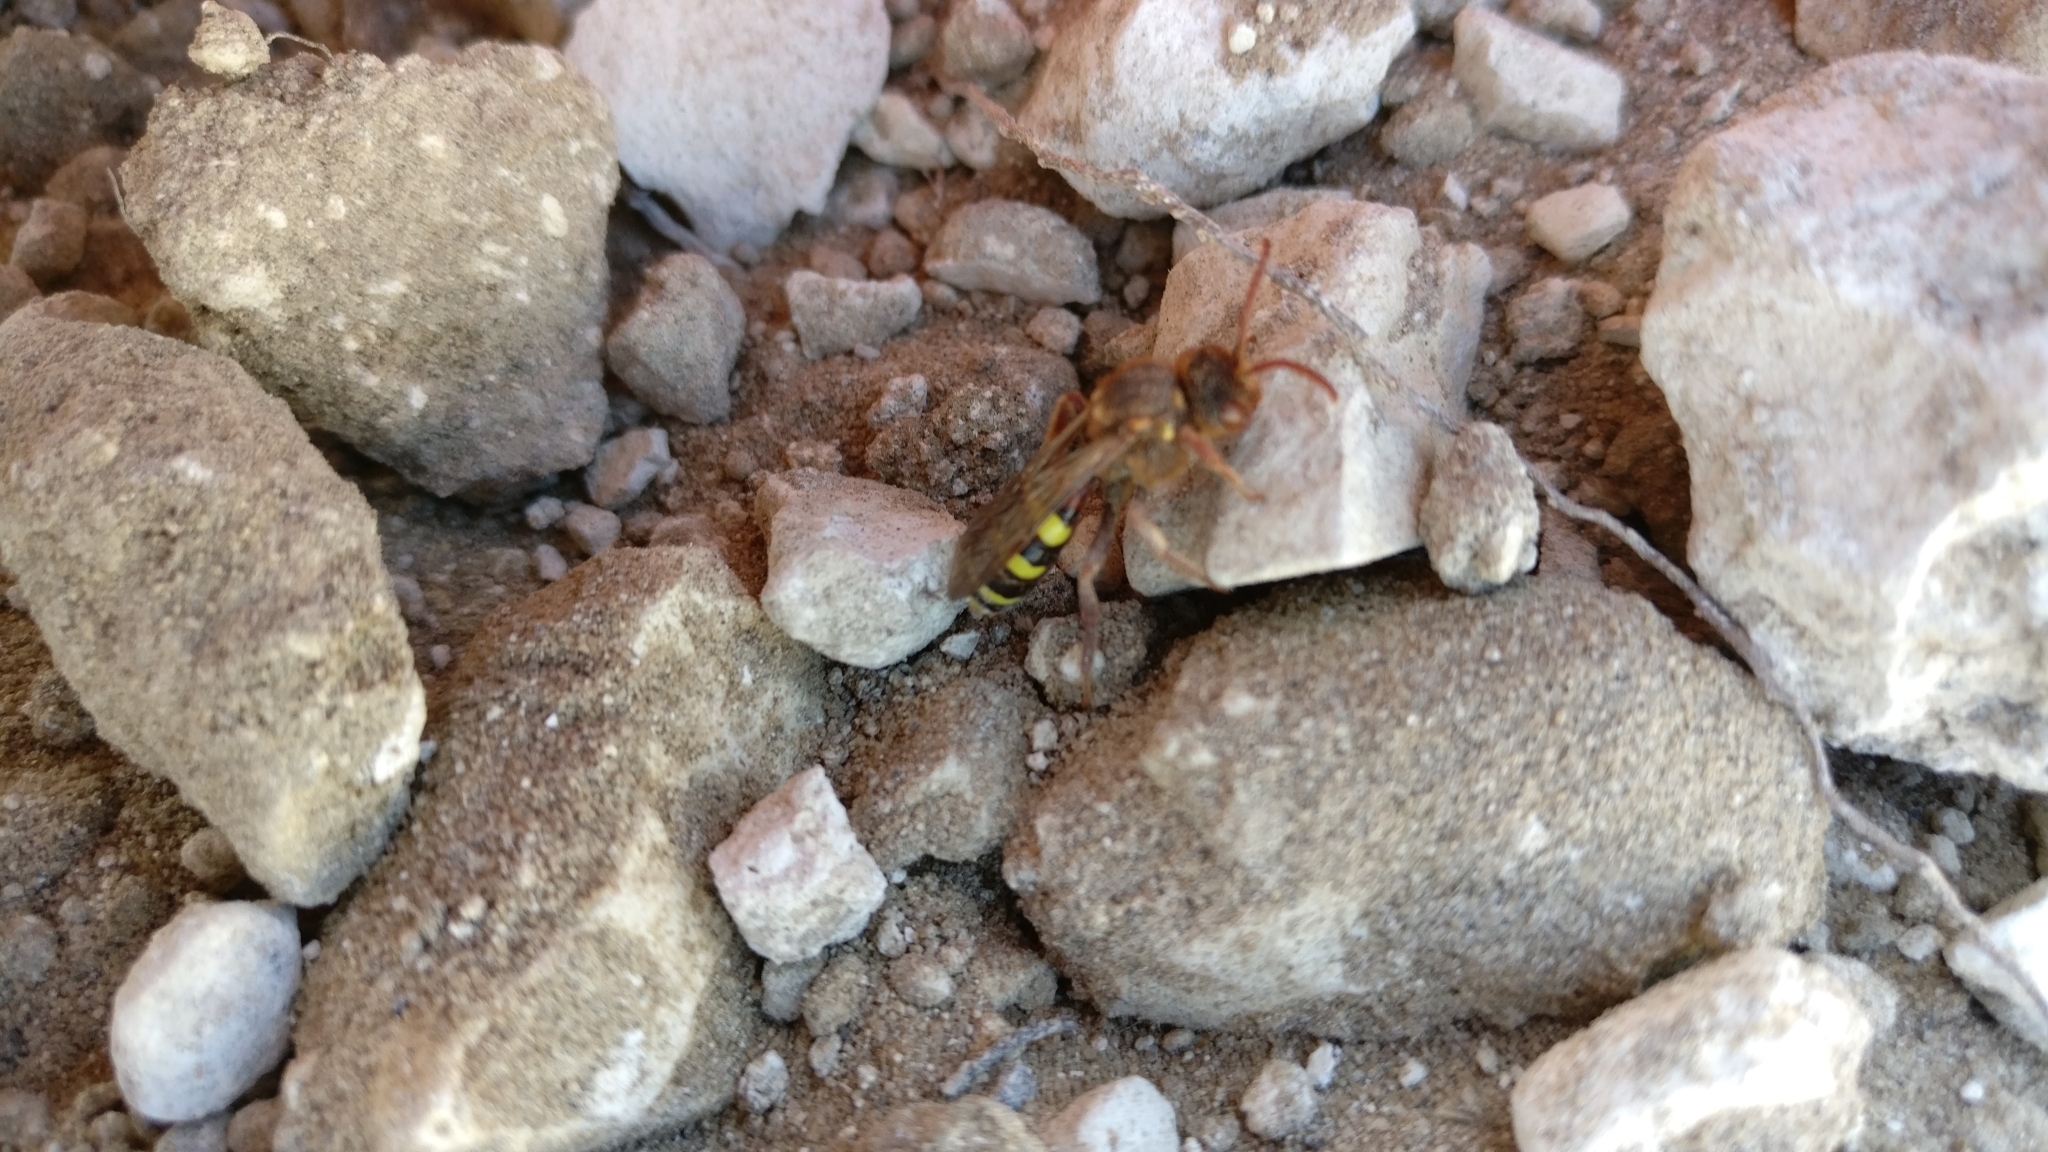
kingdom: Animalia
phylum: Arthropoda
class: Insecta
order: Hymenoptera
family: Apidae
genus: Nomada
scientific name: Nomada lathburiana
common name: Lathbury's nomad bee
